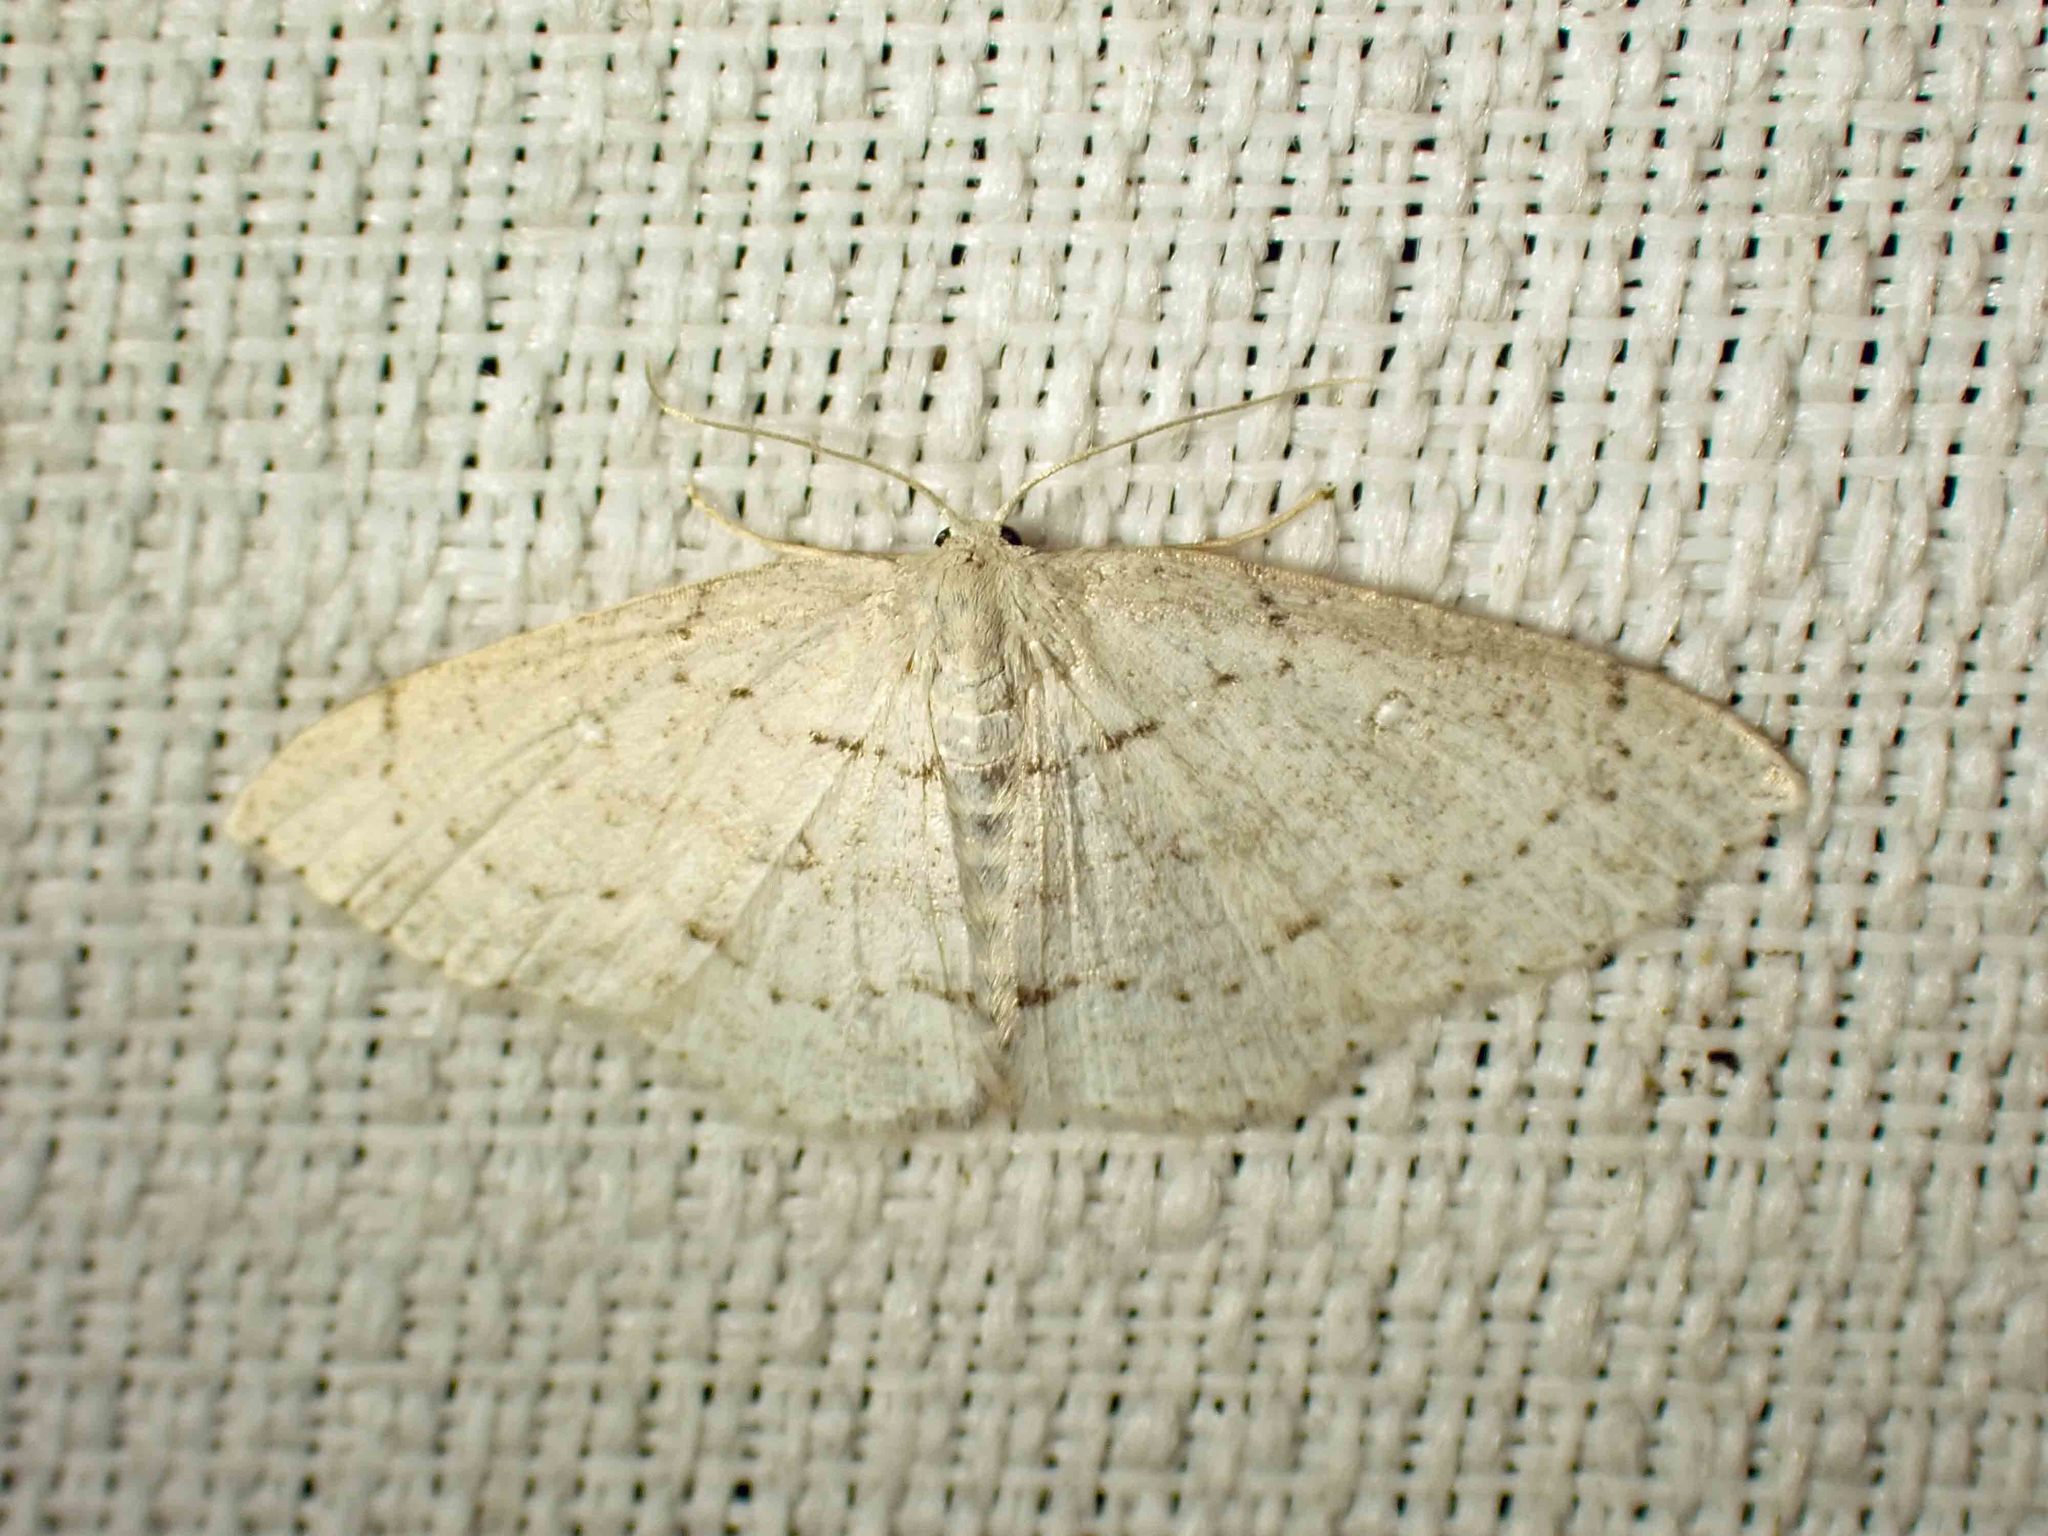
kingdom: Animalia
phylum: Arthropoda
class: Insecta
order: Lepidoptera
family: Geometridae
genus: Cyclophora
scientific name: Cyclophora pendulinaria
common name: Sweet fern geometer
